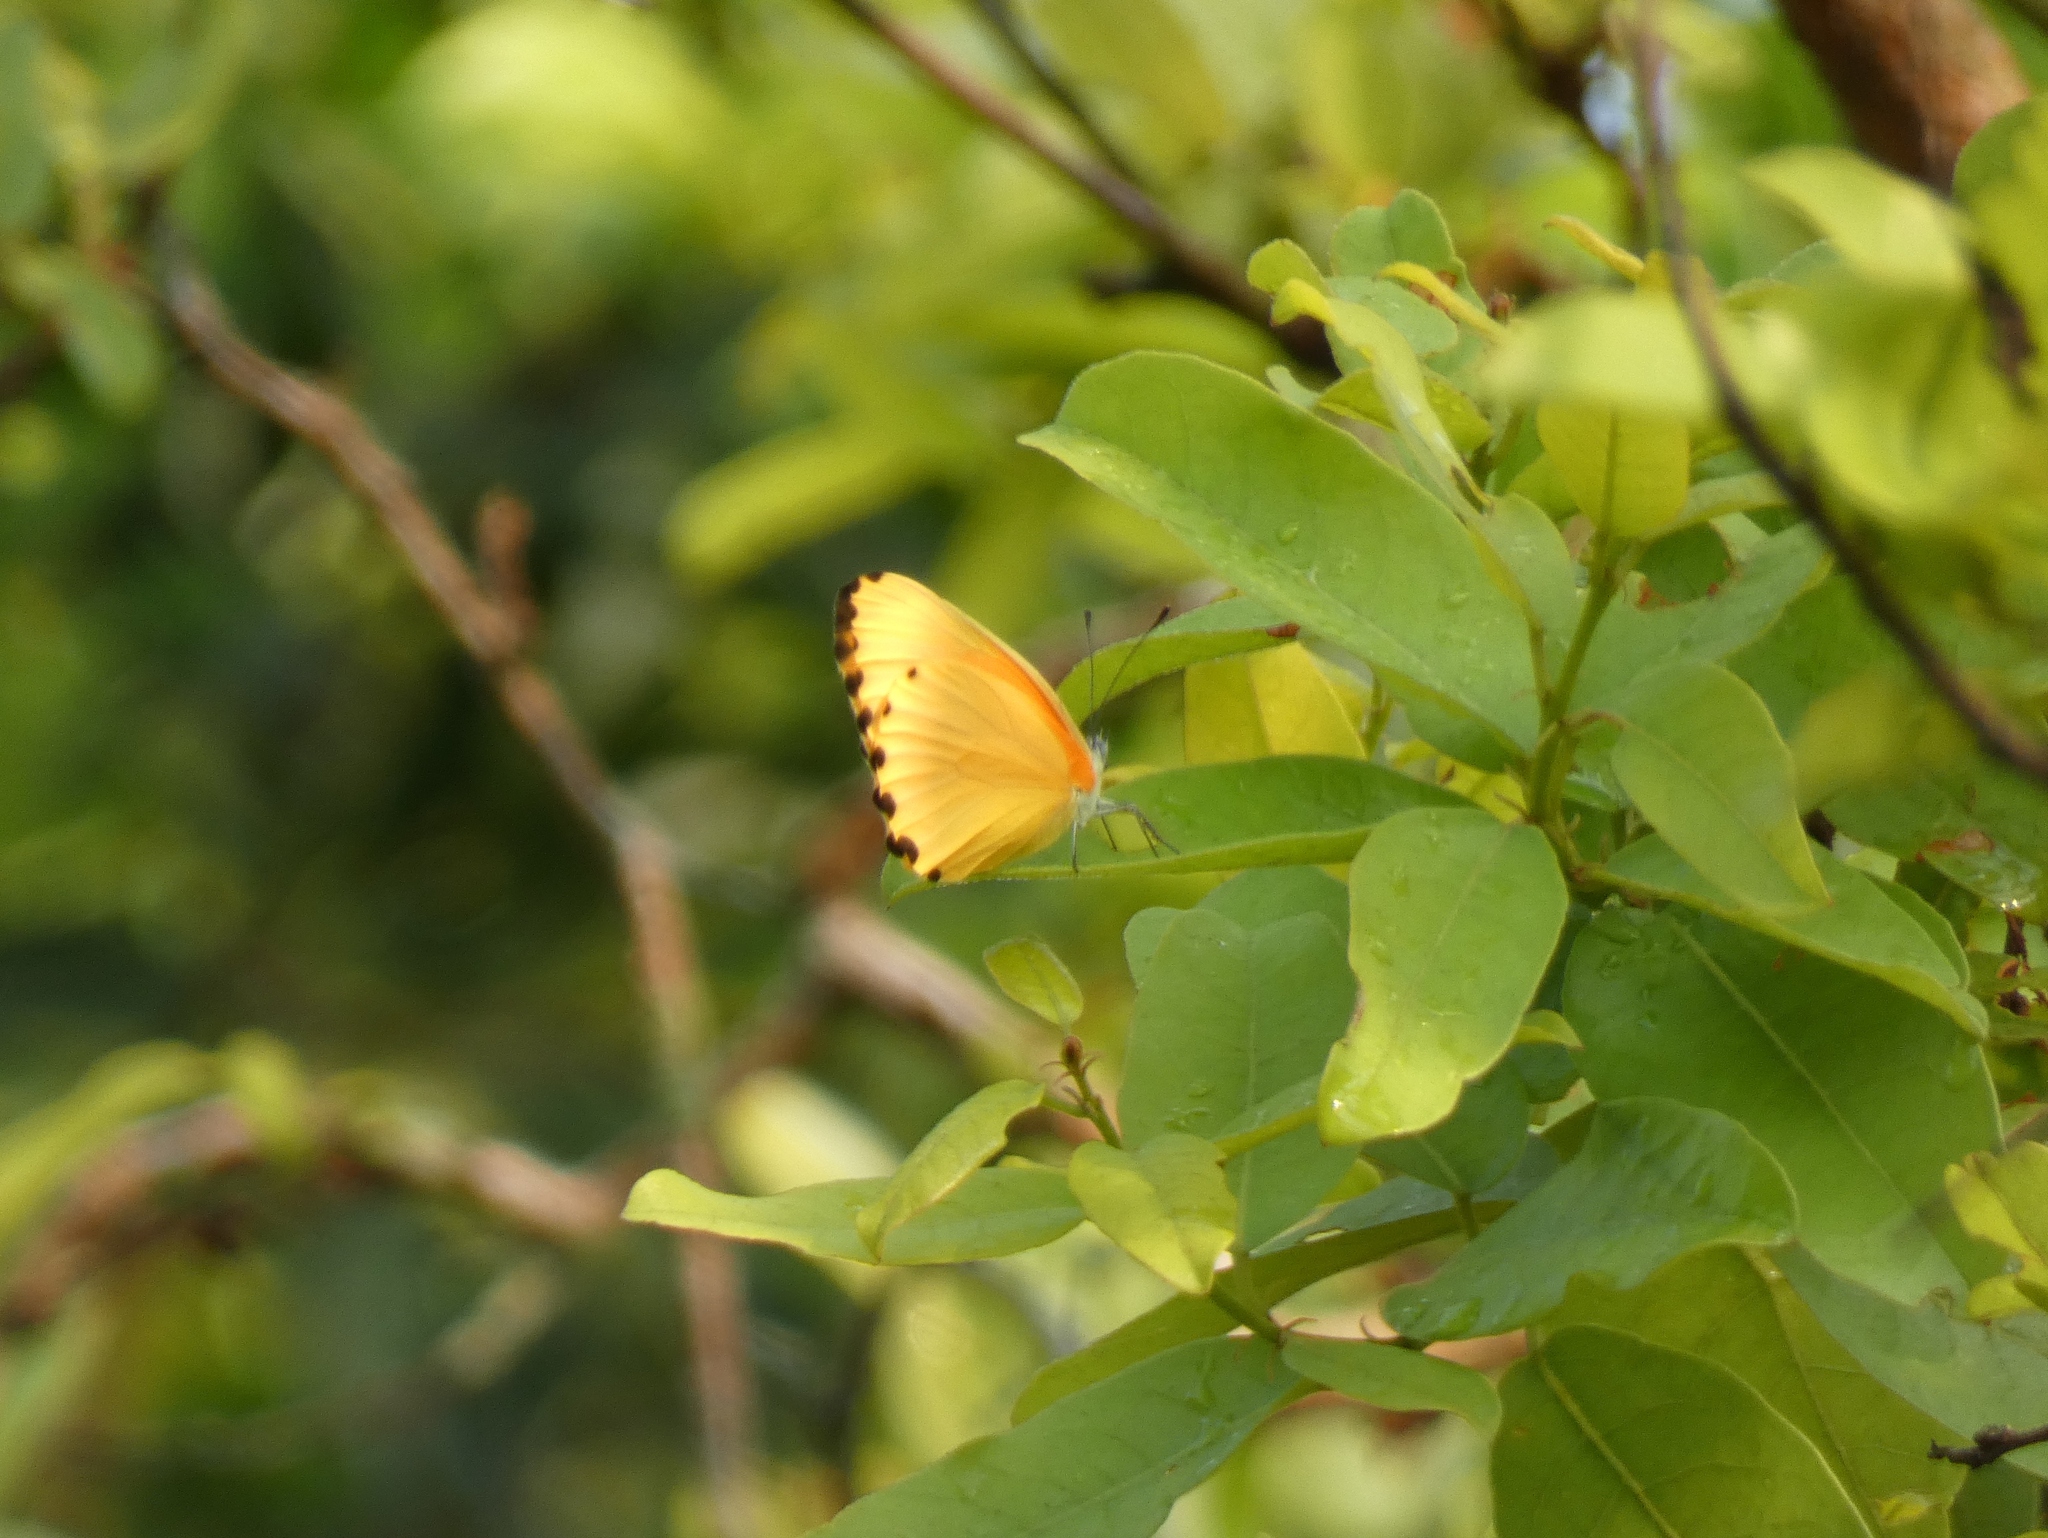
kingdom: Animalia
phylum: Arthropoda
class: Insecta
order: Lepidoptera
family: Pieridae
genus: Mylothris
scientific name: Mylothris agathina
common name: Eastern dotted border
